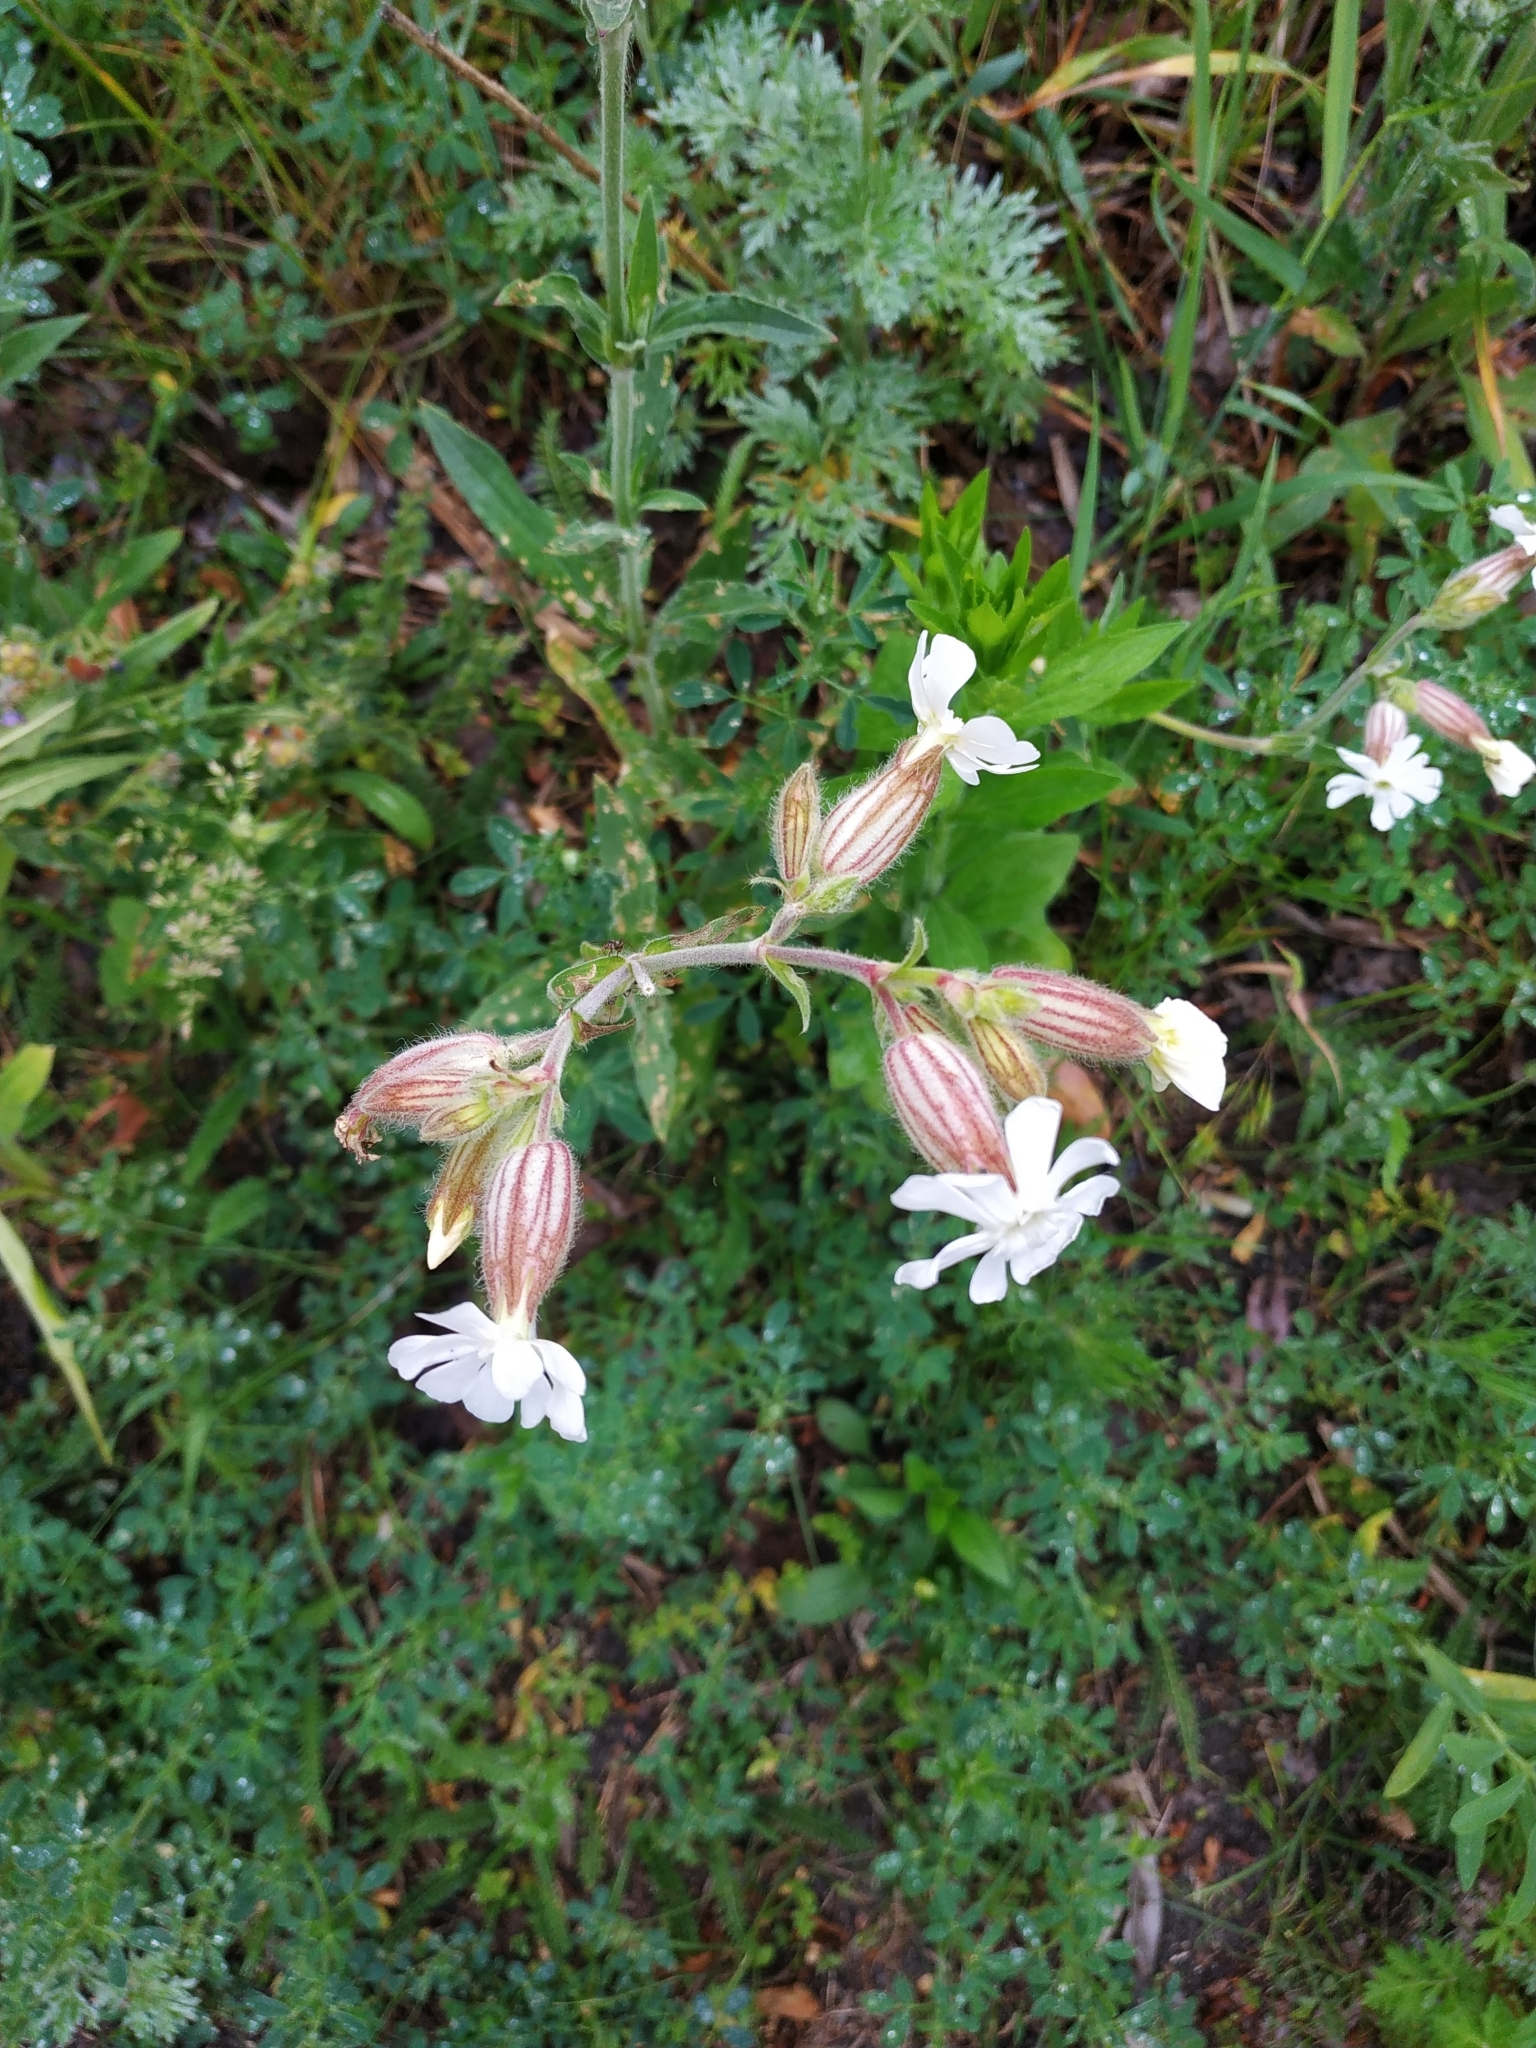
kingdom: Plantae
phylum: Tracheophyta
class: Magnoliopsida
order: Caryophyllales
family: Caryophyllaceae
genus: Silene
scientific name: Silene latifolia
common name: White campion
